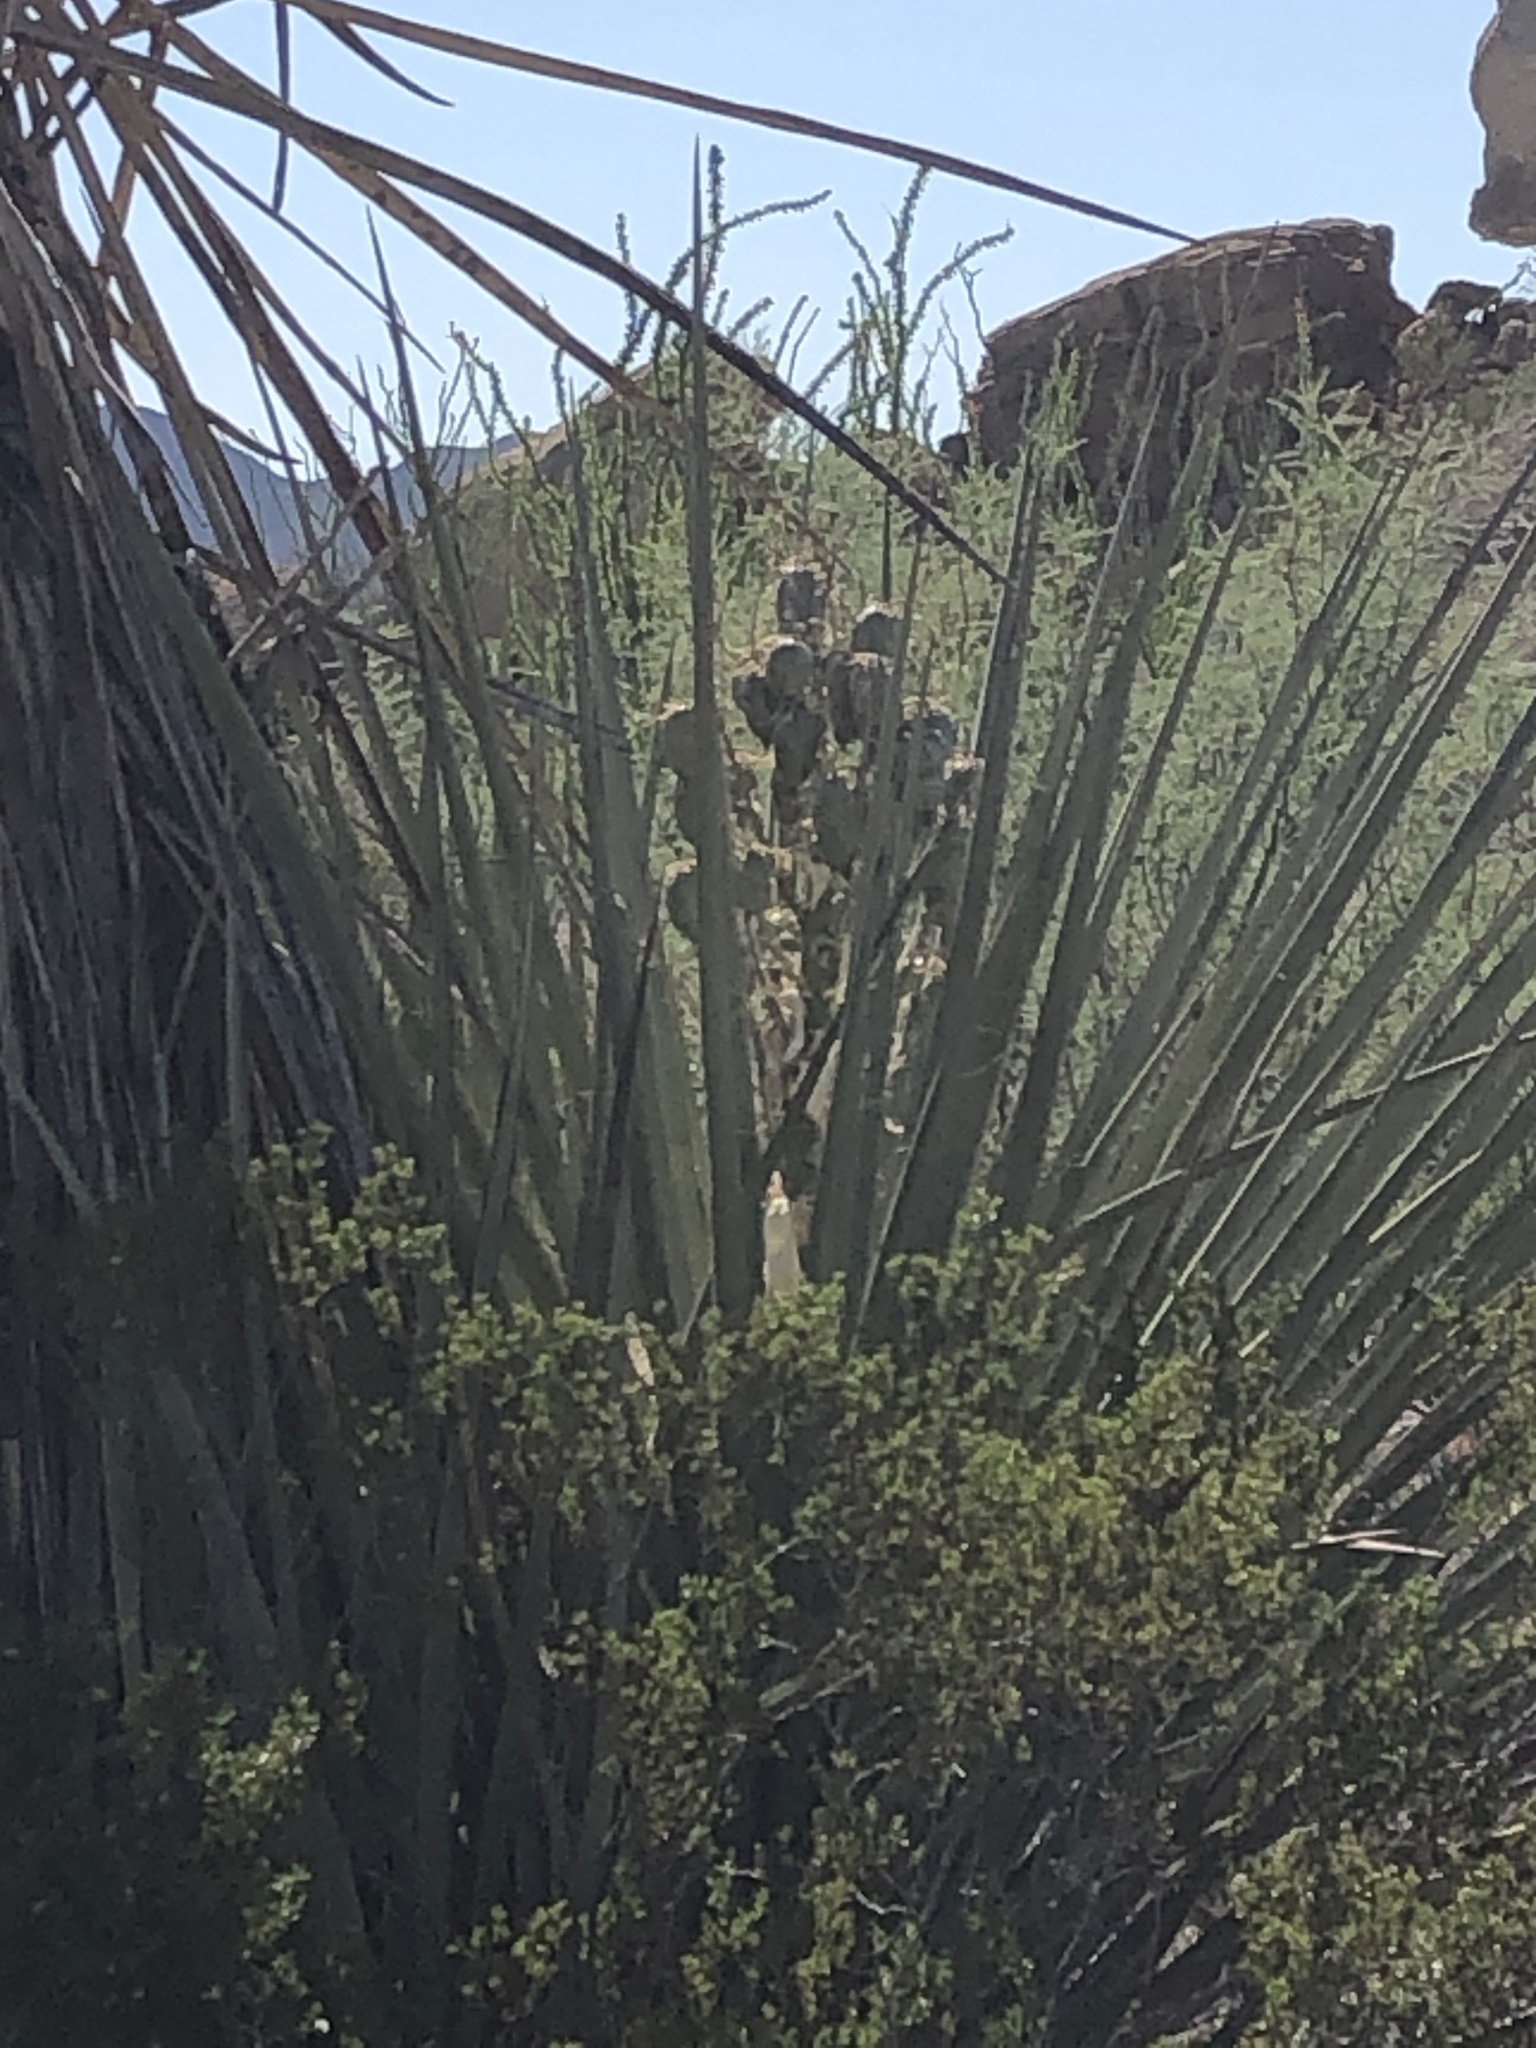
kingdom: Plantae
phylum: Tracheophyta
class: Liliopsida
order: Asparagales
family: Asparagaceae
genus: Yucca
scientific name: Yucca treculiana
